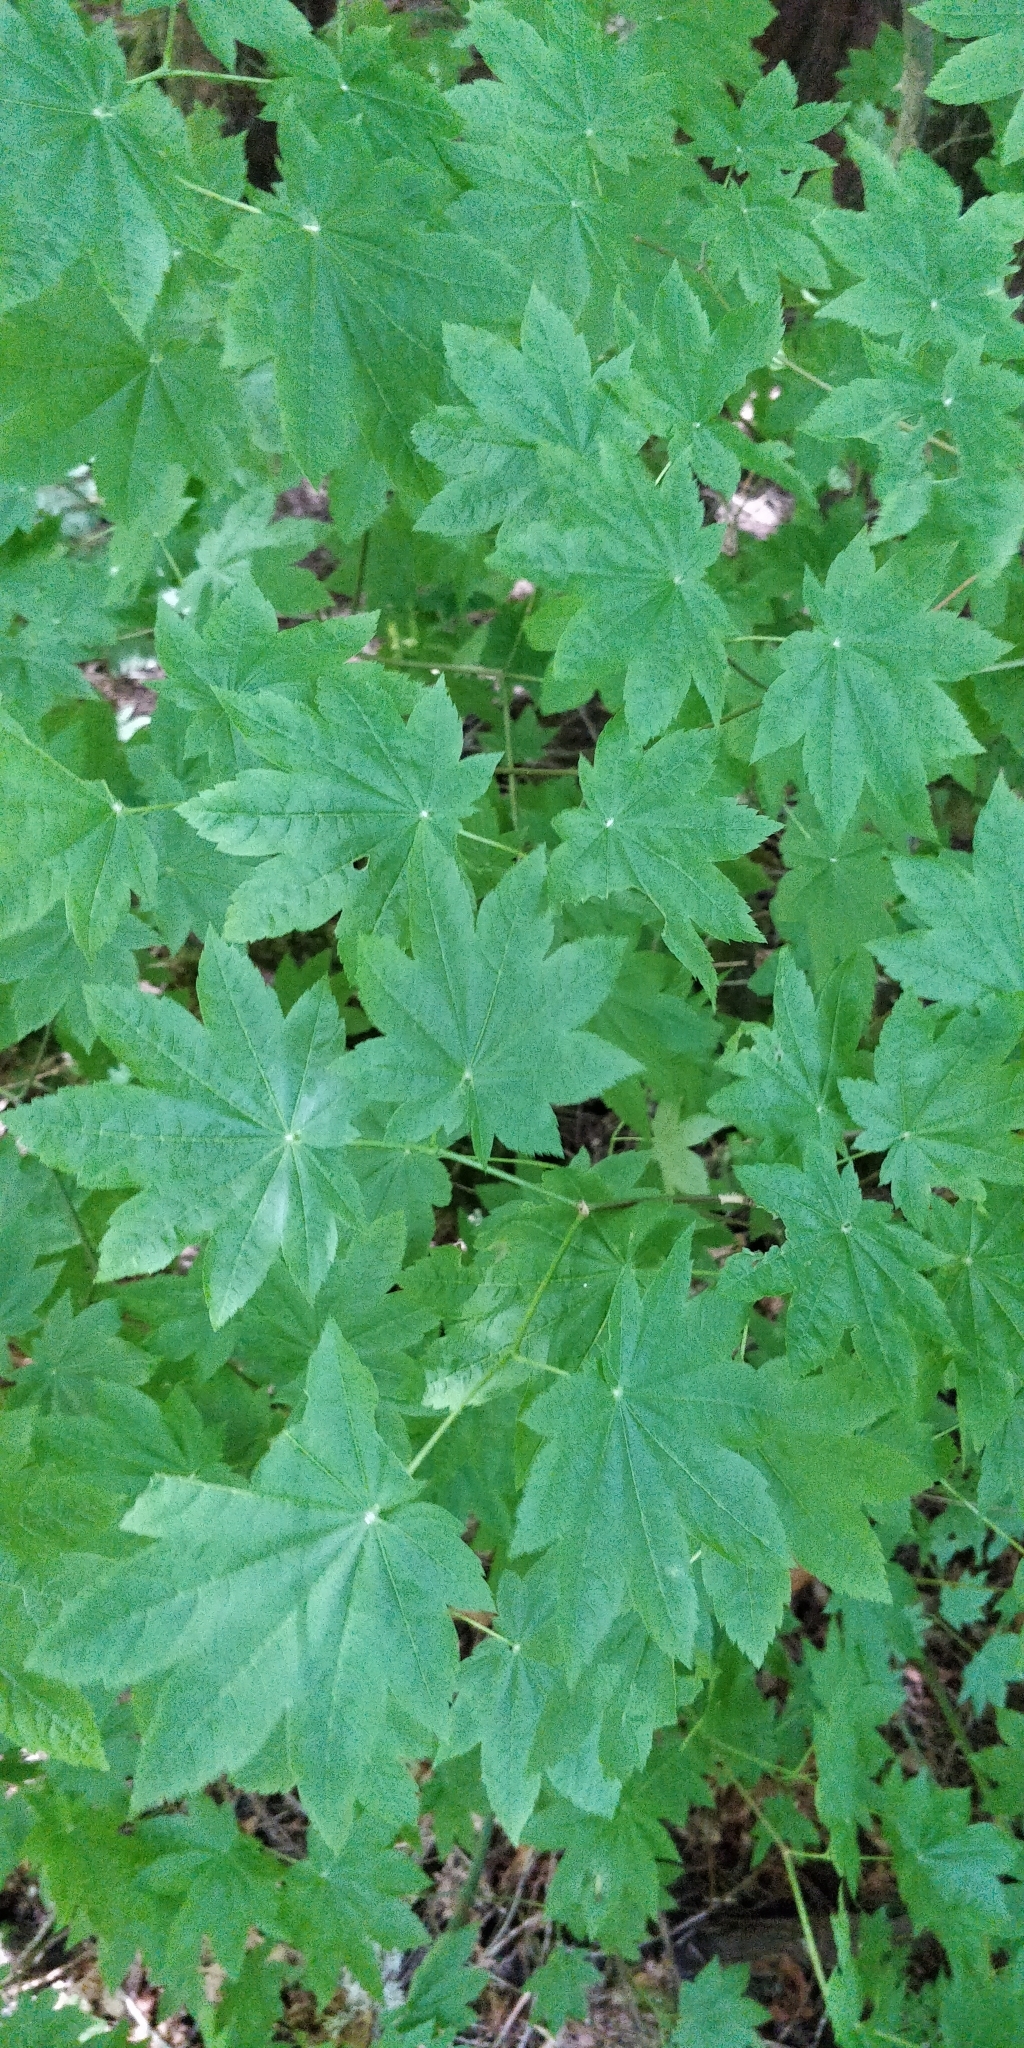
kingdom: Plantae
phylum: Tracheophyta
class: Magnoliopsida
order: Sapindales
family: Sapindaceae
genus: Acer
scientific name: Acer circinatum
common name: Vine maple
